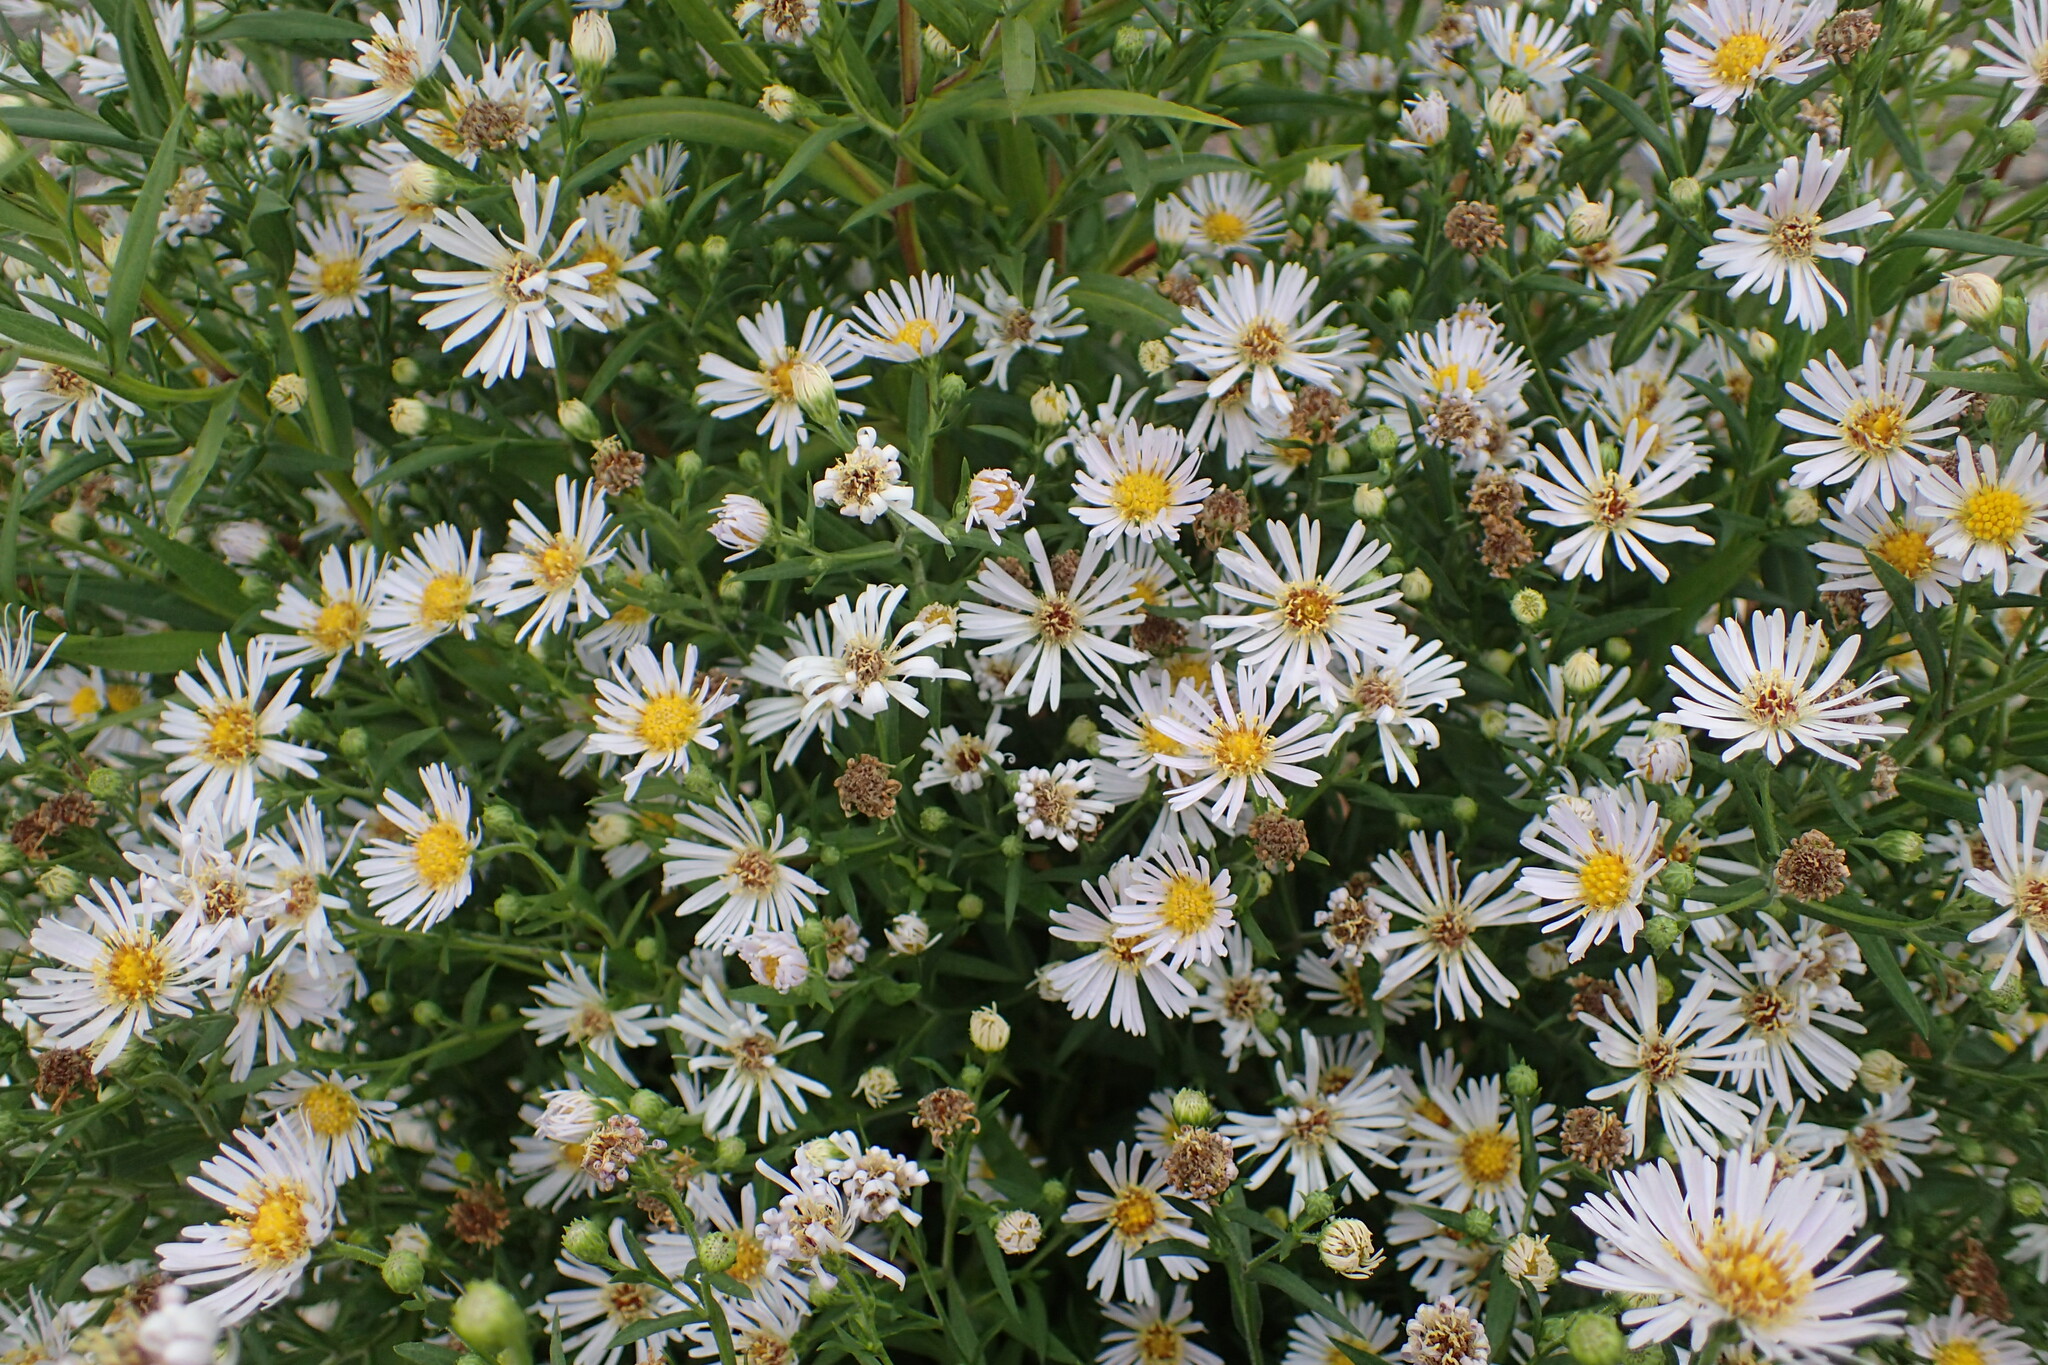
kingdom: Plantae
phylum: Tracheophyta
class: Magnoliopsida
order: Asterales
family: Asteraceae
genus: Symphyotrichum
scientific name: Symphyotrichum lanceolatum
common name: Panicled aster
